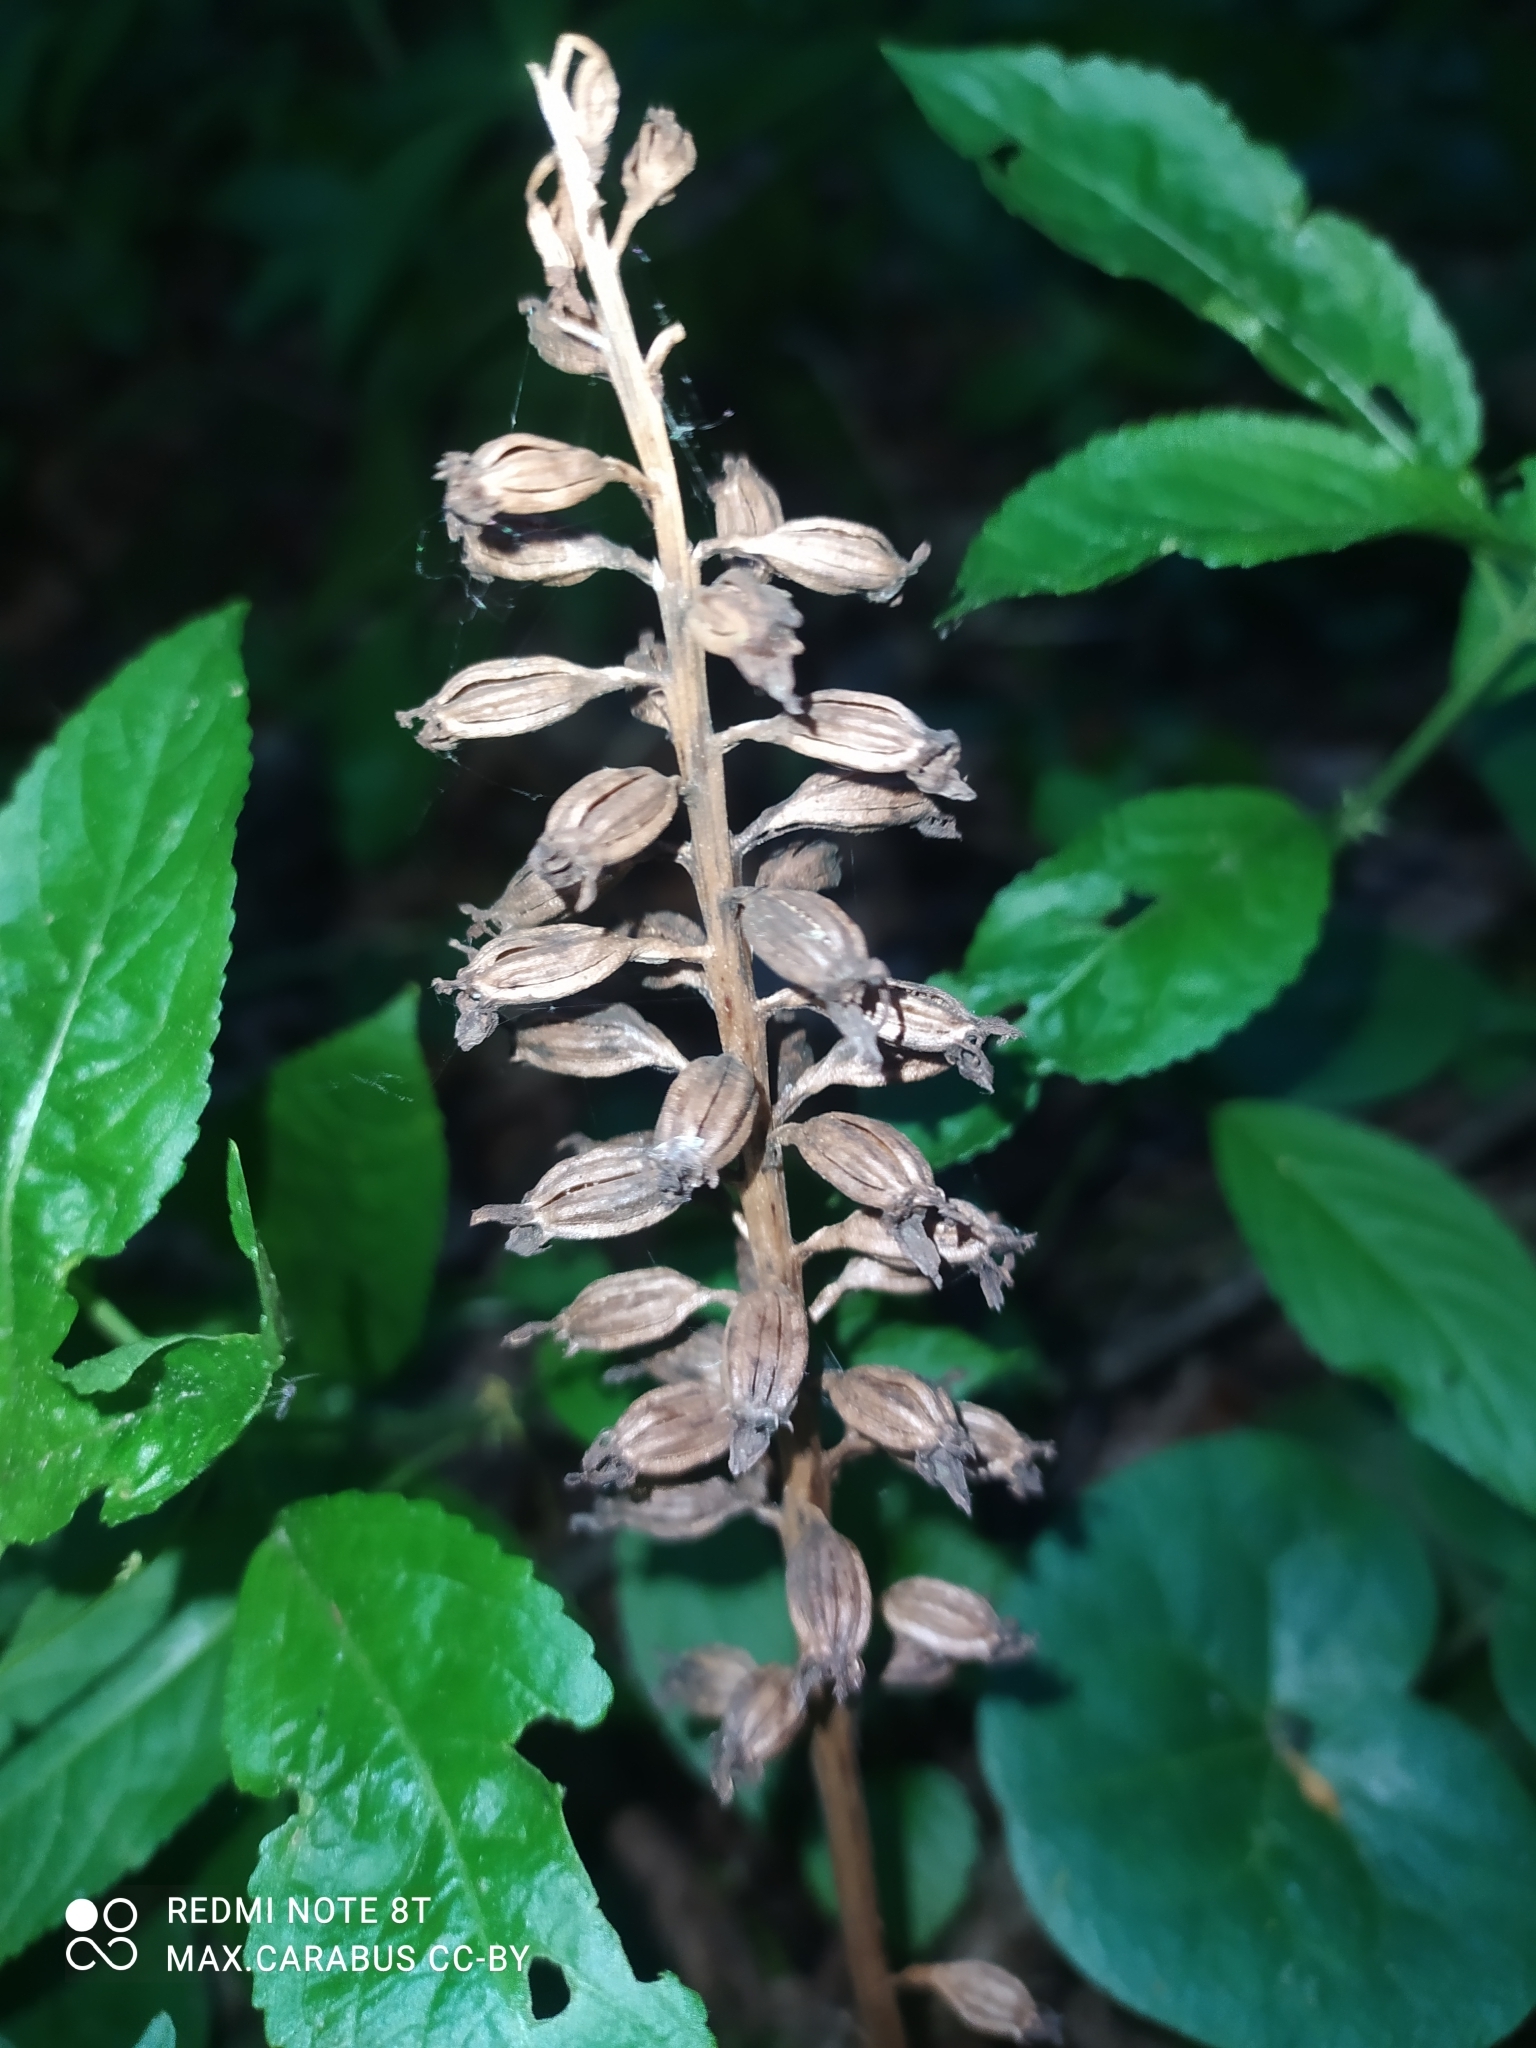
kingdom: Plantae
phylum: Tracheophyta
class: Liliopsida
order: Asparagales
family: Orchidaceae
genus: Neottia
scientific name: Neottia nidus-avis
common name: Bird's-nest orchid
